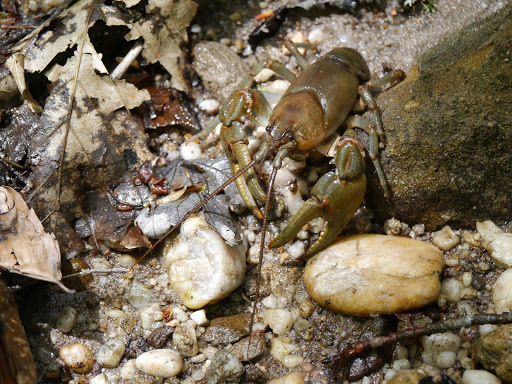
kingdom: Animalia
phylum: Arthropoda
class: Malacostraca
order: Decapoda
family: Cambaridae
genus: Cambarus
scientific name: Cambarus carinirostris
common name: Rock crayfish
